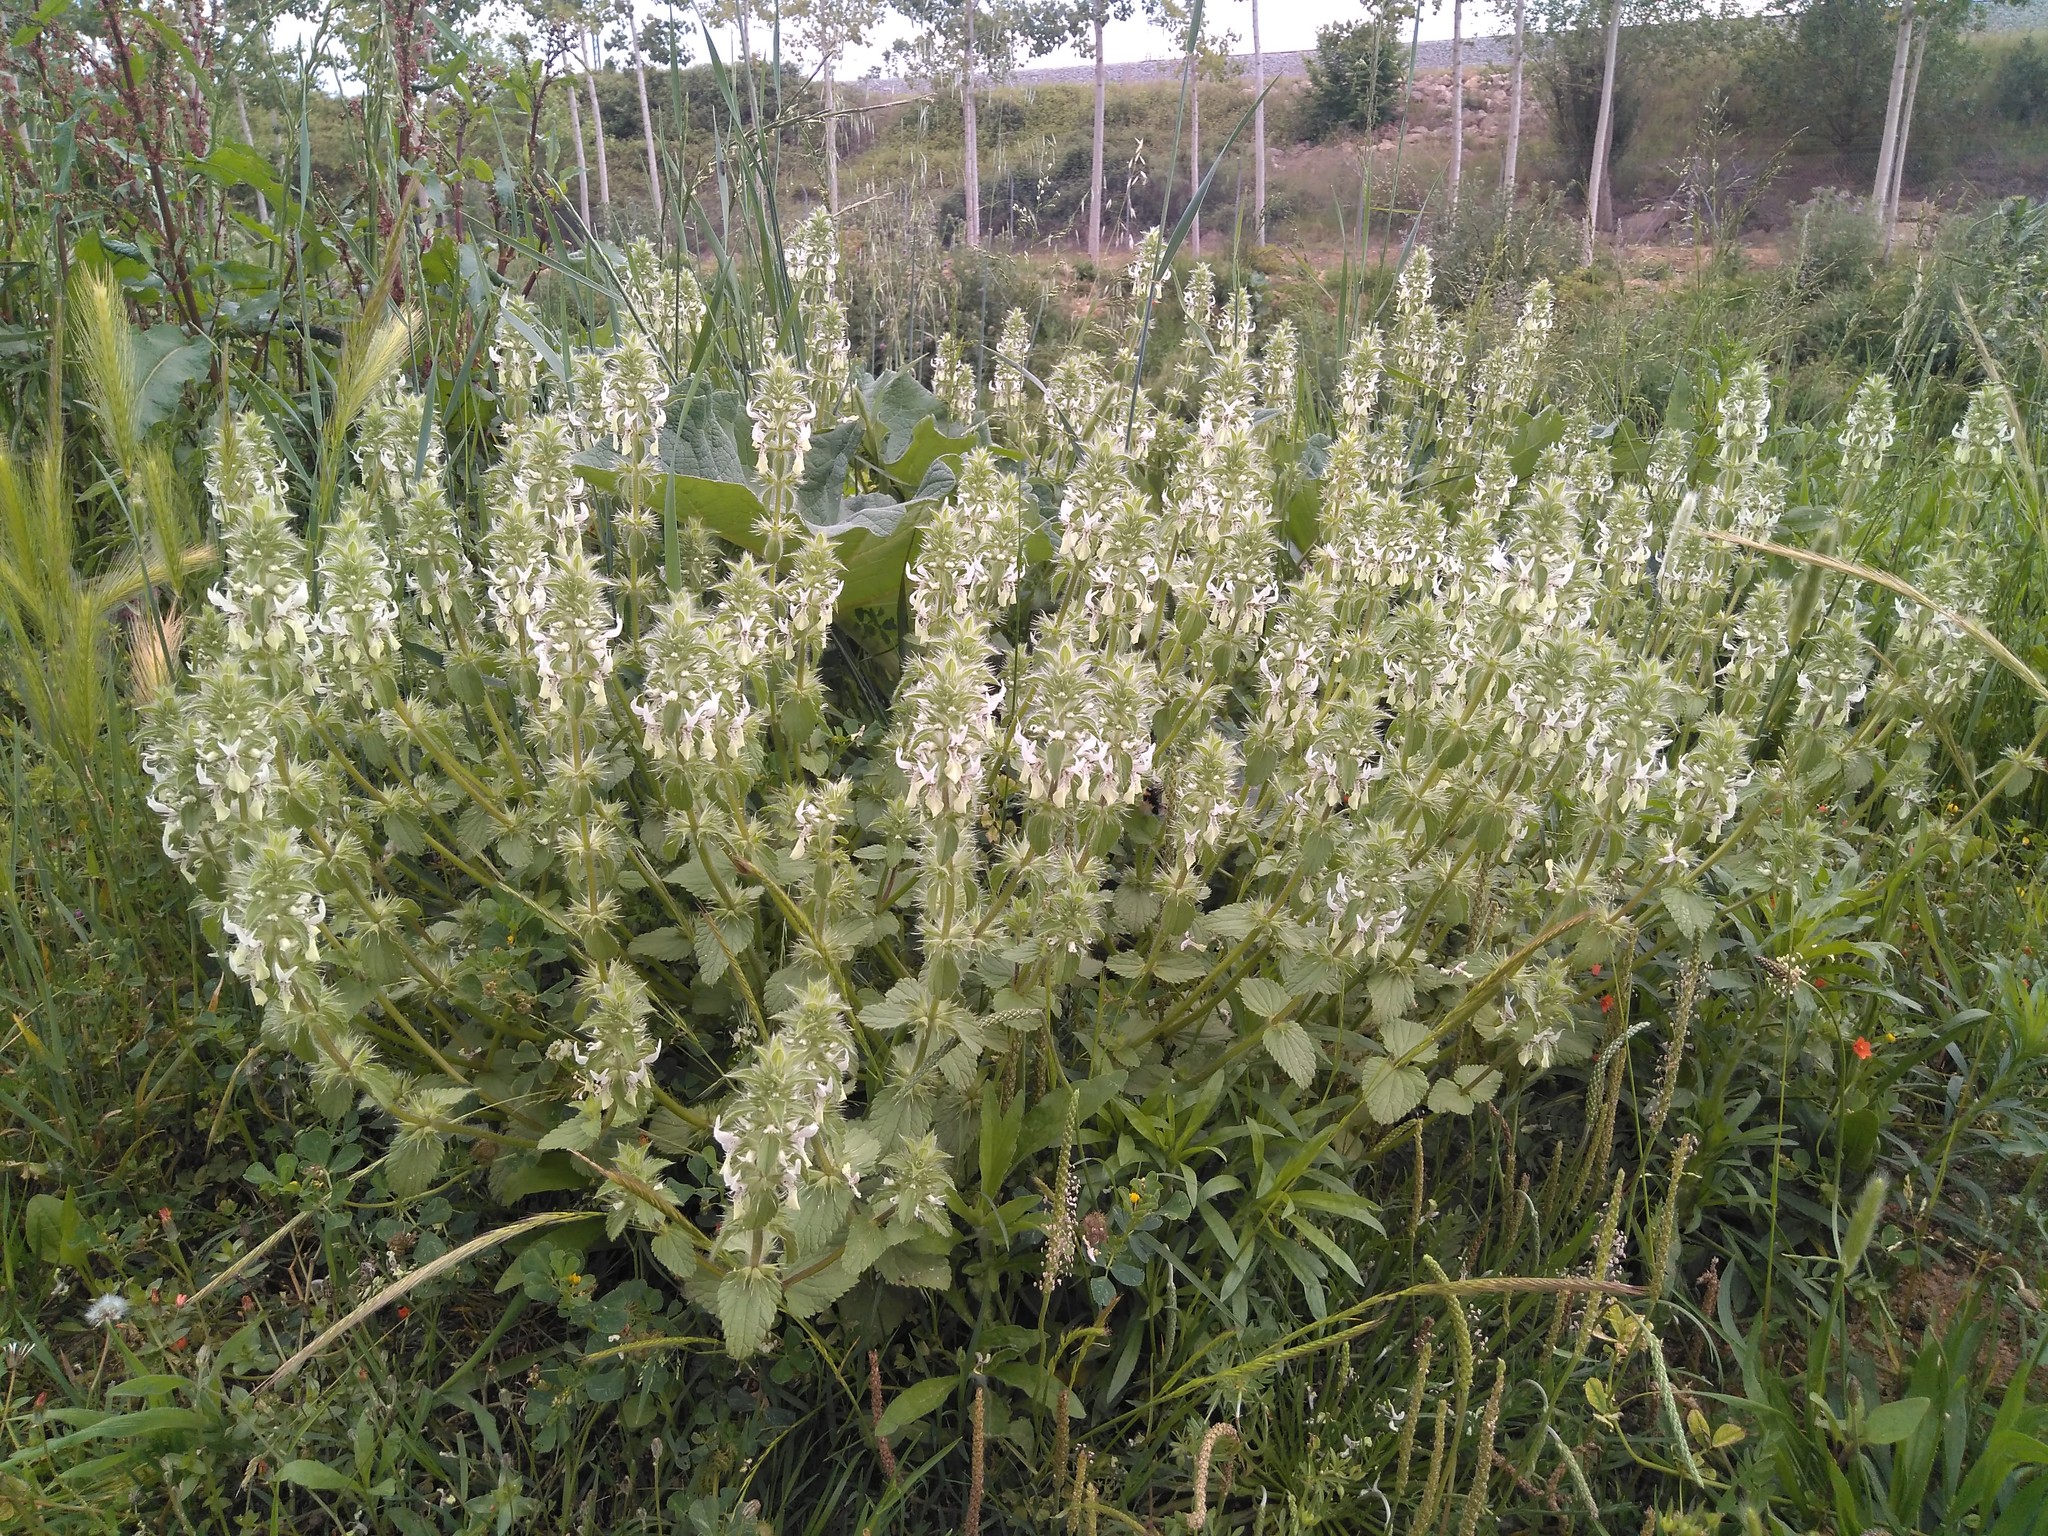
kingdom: Plantae
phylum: Tracheophyta
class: Magnoliopsida
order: Lamiales
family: Lamiaceae
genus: Stachys
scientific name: Stachys ocymastrum
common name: Italian hedgenettle
